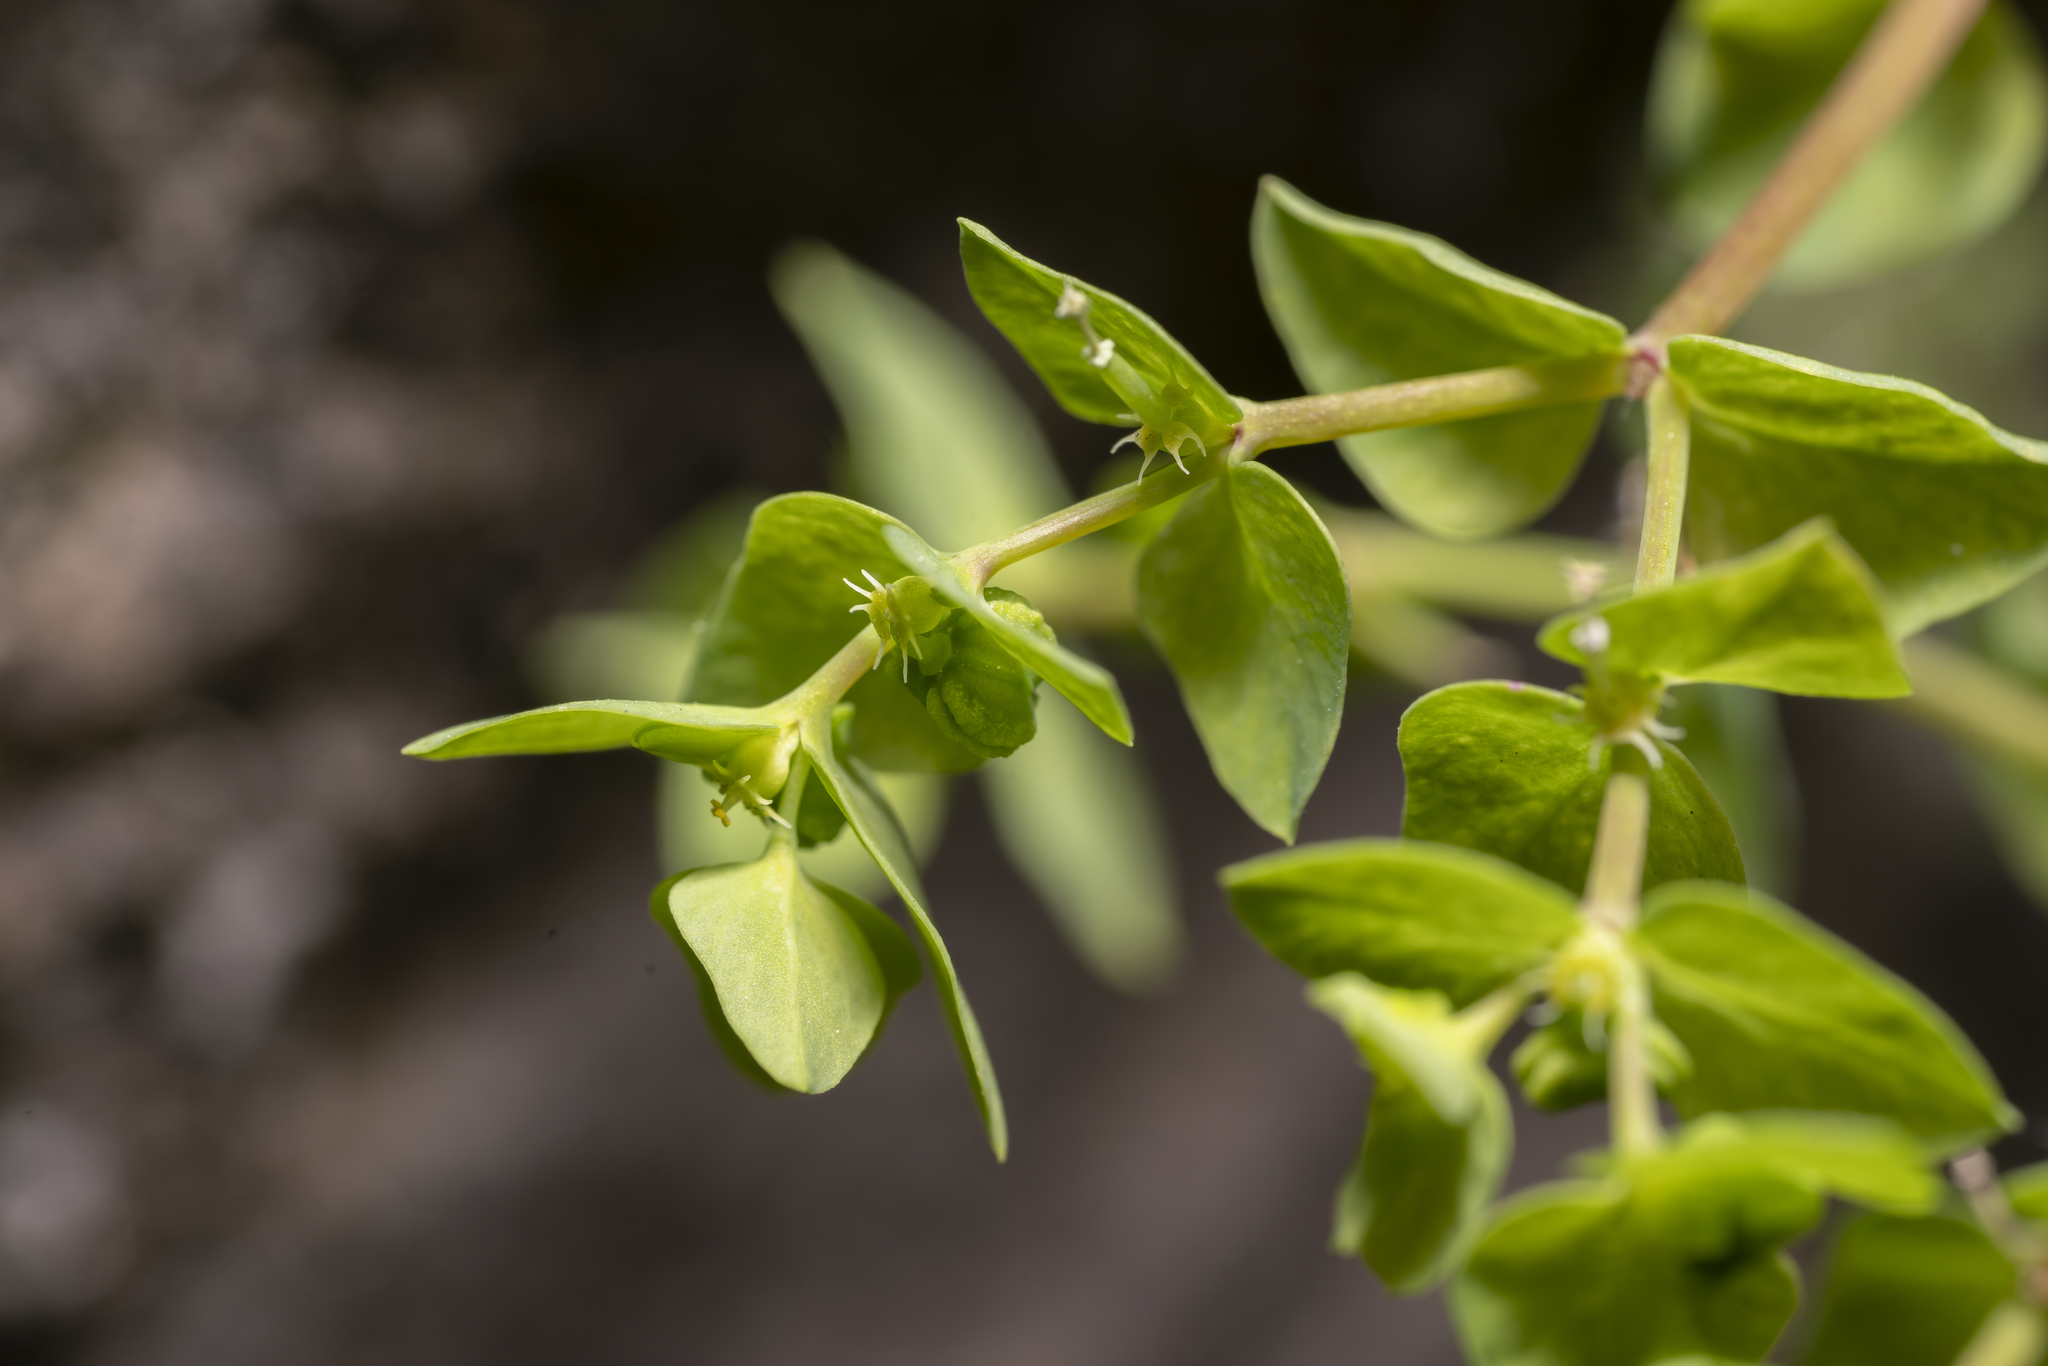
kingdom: Plantae
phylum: Tracheophyta
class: Magnoliopsida
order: Malpighiales
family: Euphorbiaceae
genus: Euphorbia
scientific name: Euphorbia peplus
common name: Petty spurge
